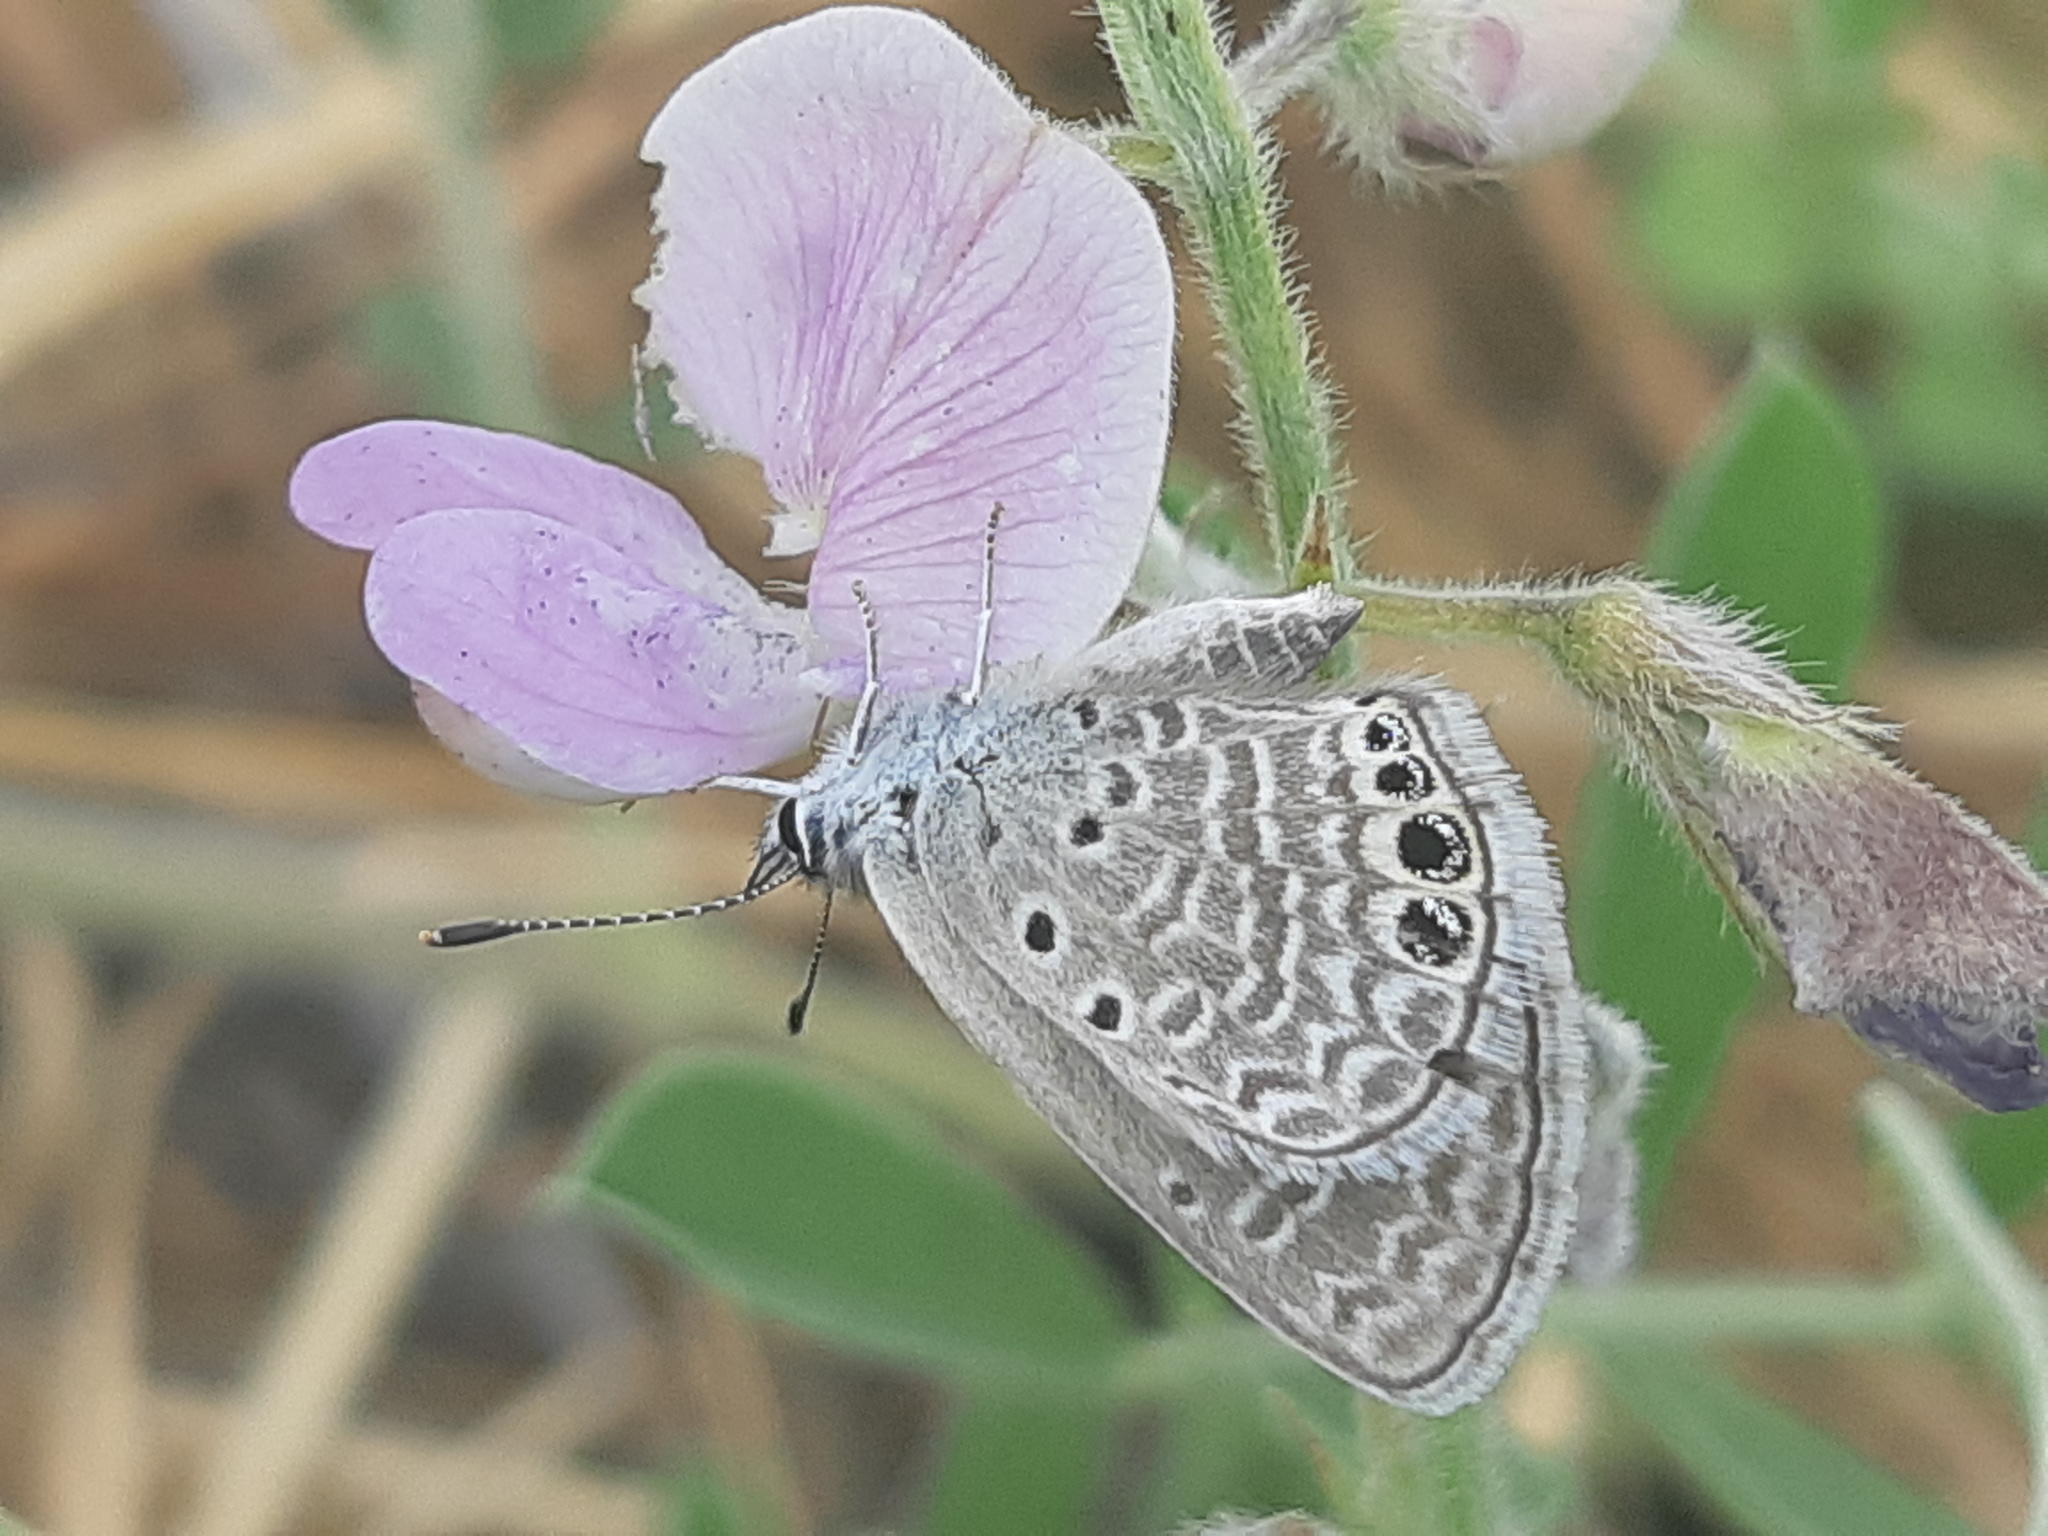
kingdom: Animalia
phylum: Arthropoda
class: Insecta
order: Lepidoptera
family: Lycaenidae
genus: Hemiargus
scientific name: Hemiargus ramon
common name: Ramon blue
